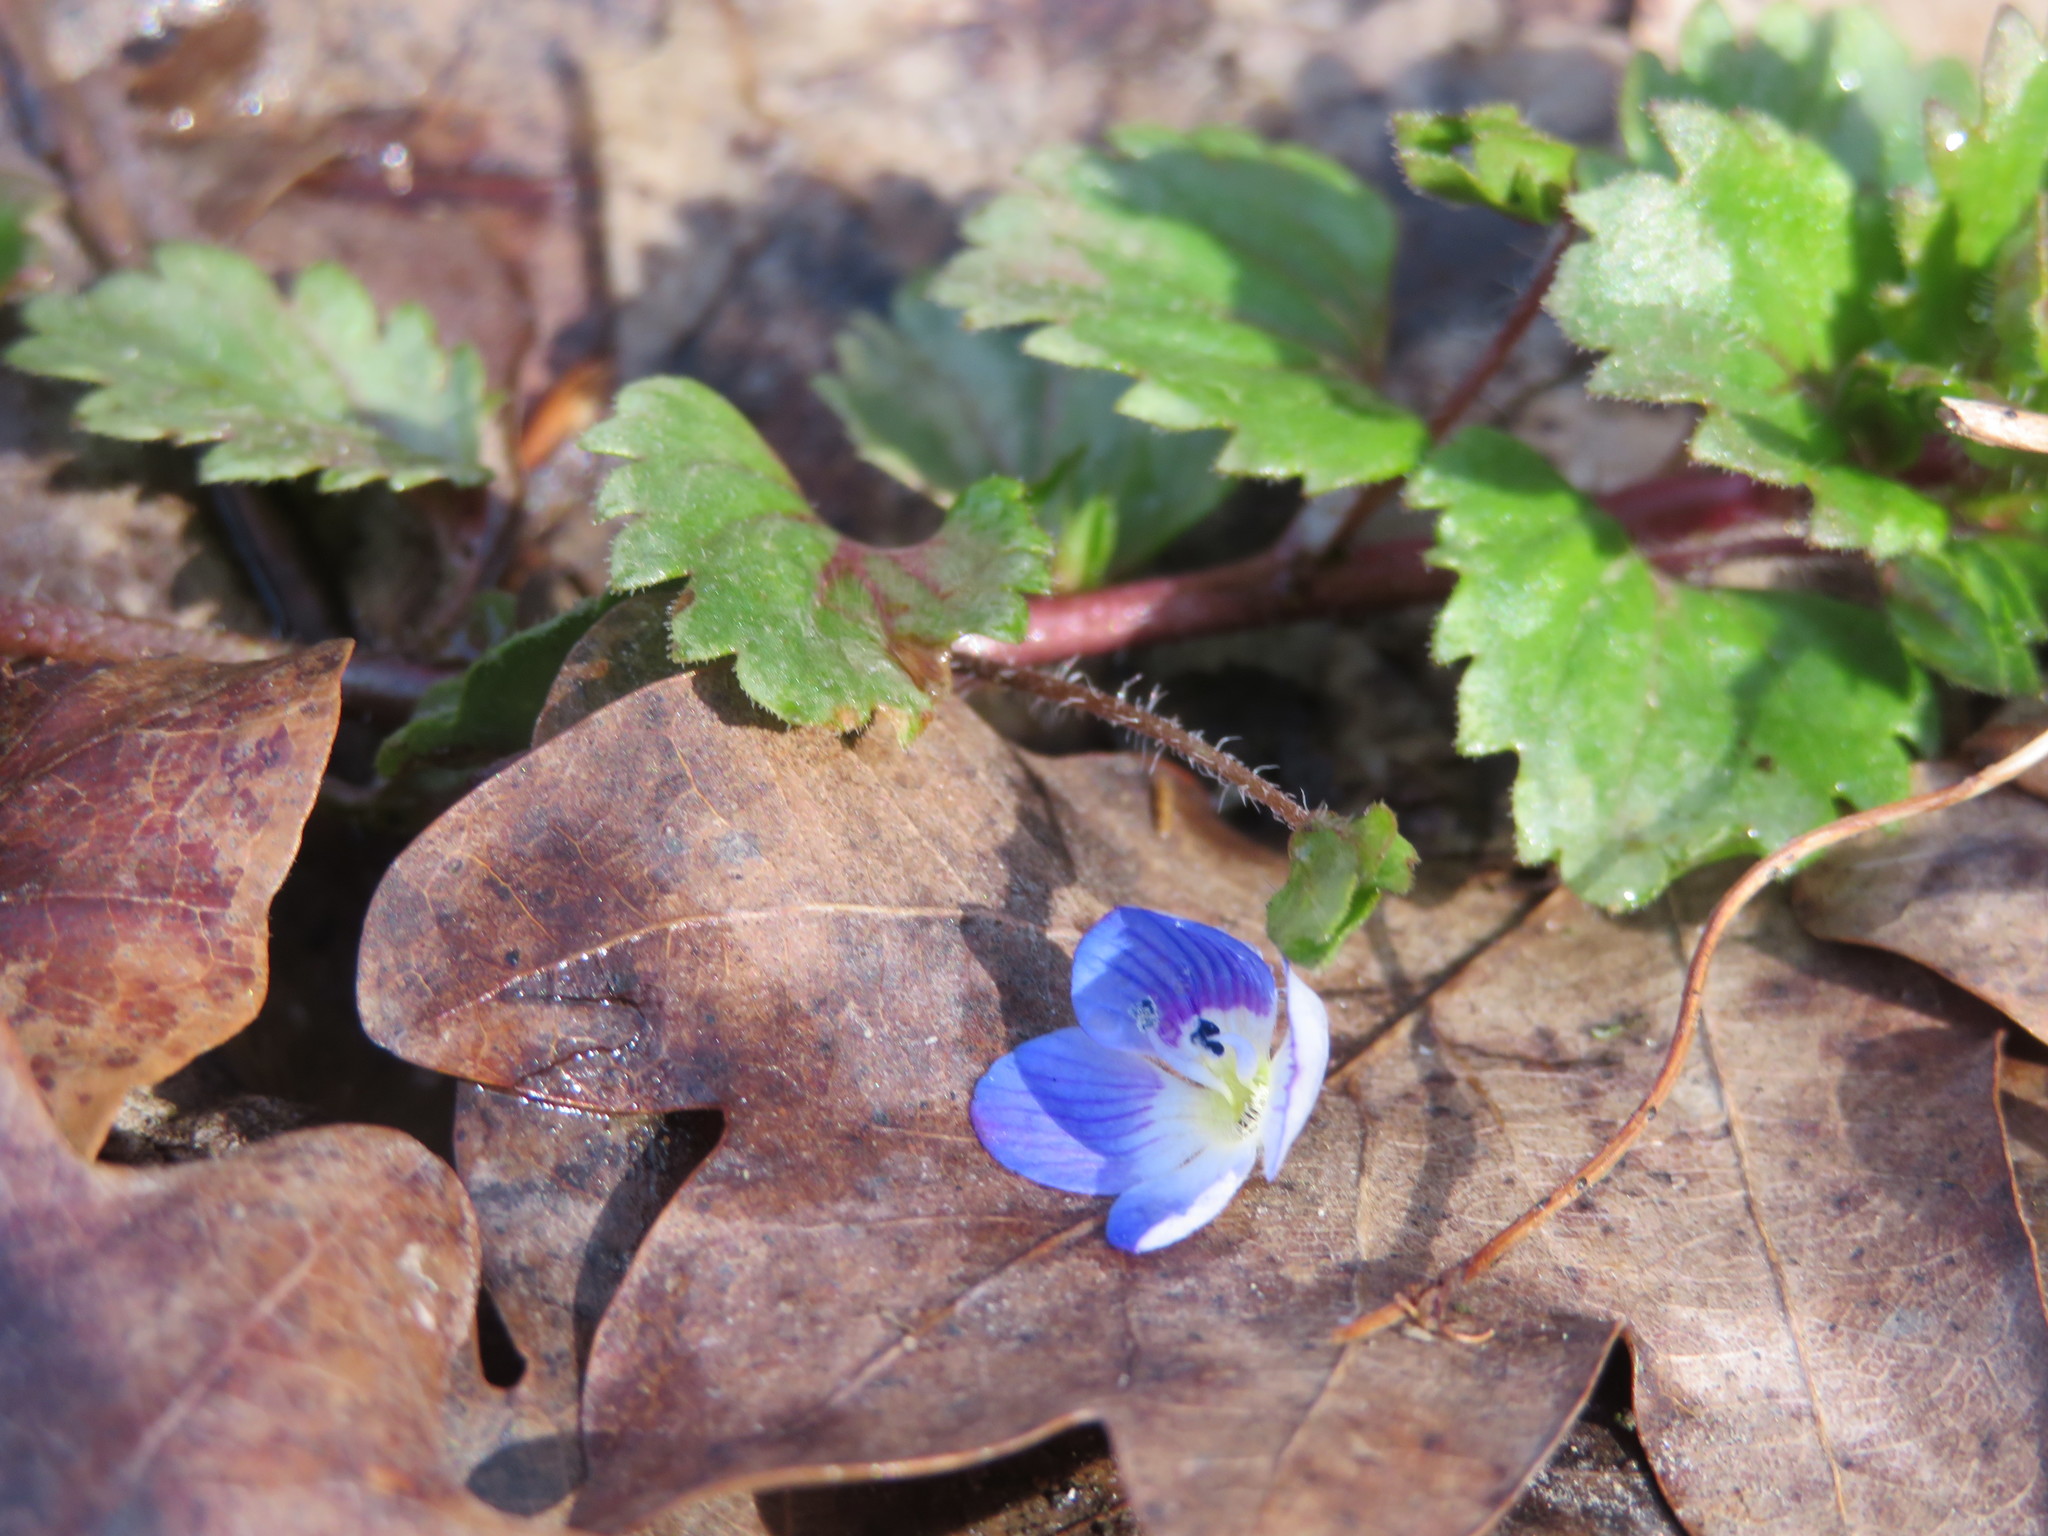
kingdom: Plantae
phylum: Tracheophyta
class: Magnoliopsida
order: Lamiales
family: Plantaginaceae
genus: Veronica
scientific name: Veronica persica
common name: Common field-speedwell
